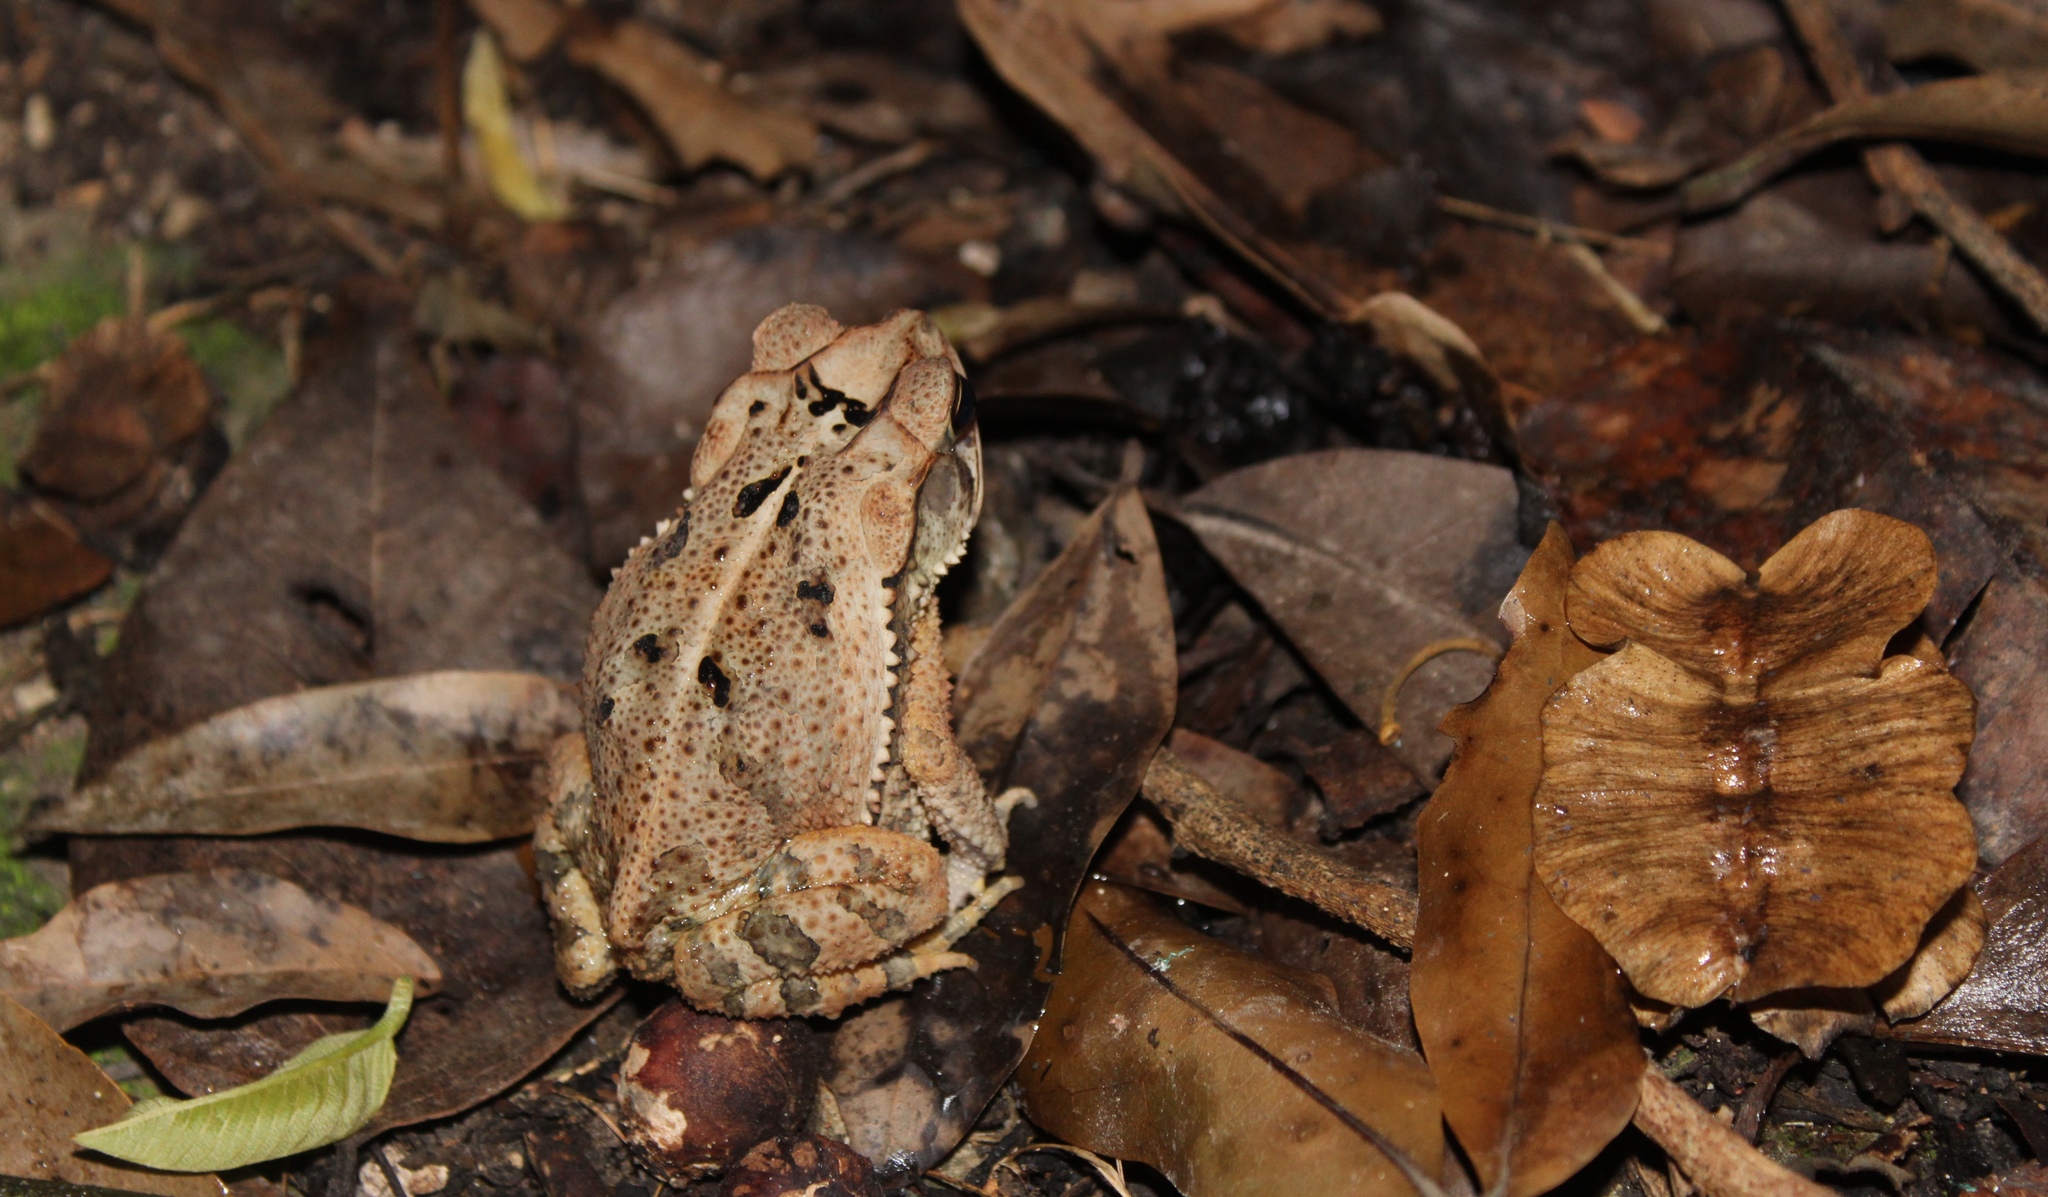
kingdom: Animalia
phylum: Chordata
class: Amphibia
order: Anura
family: Bufonidae
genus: Incilius
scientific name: Incilius valliceps
